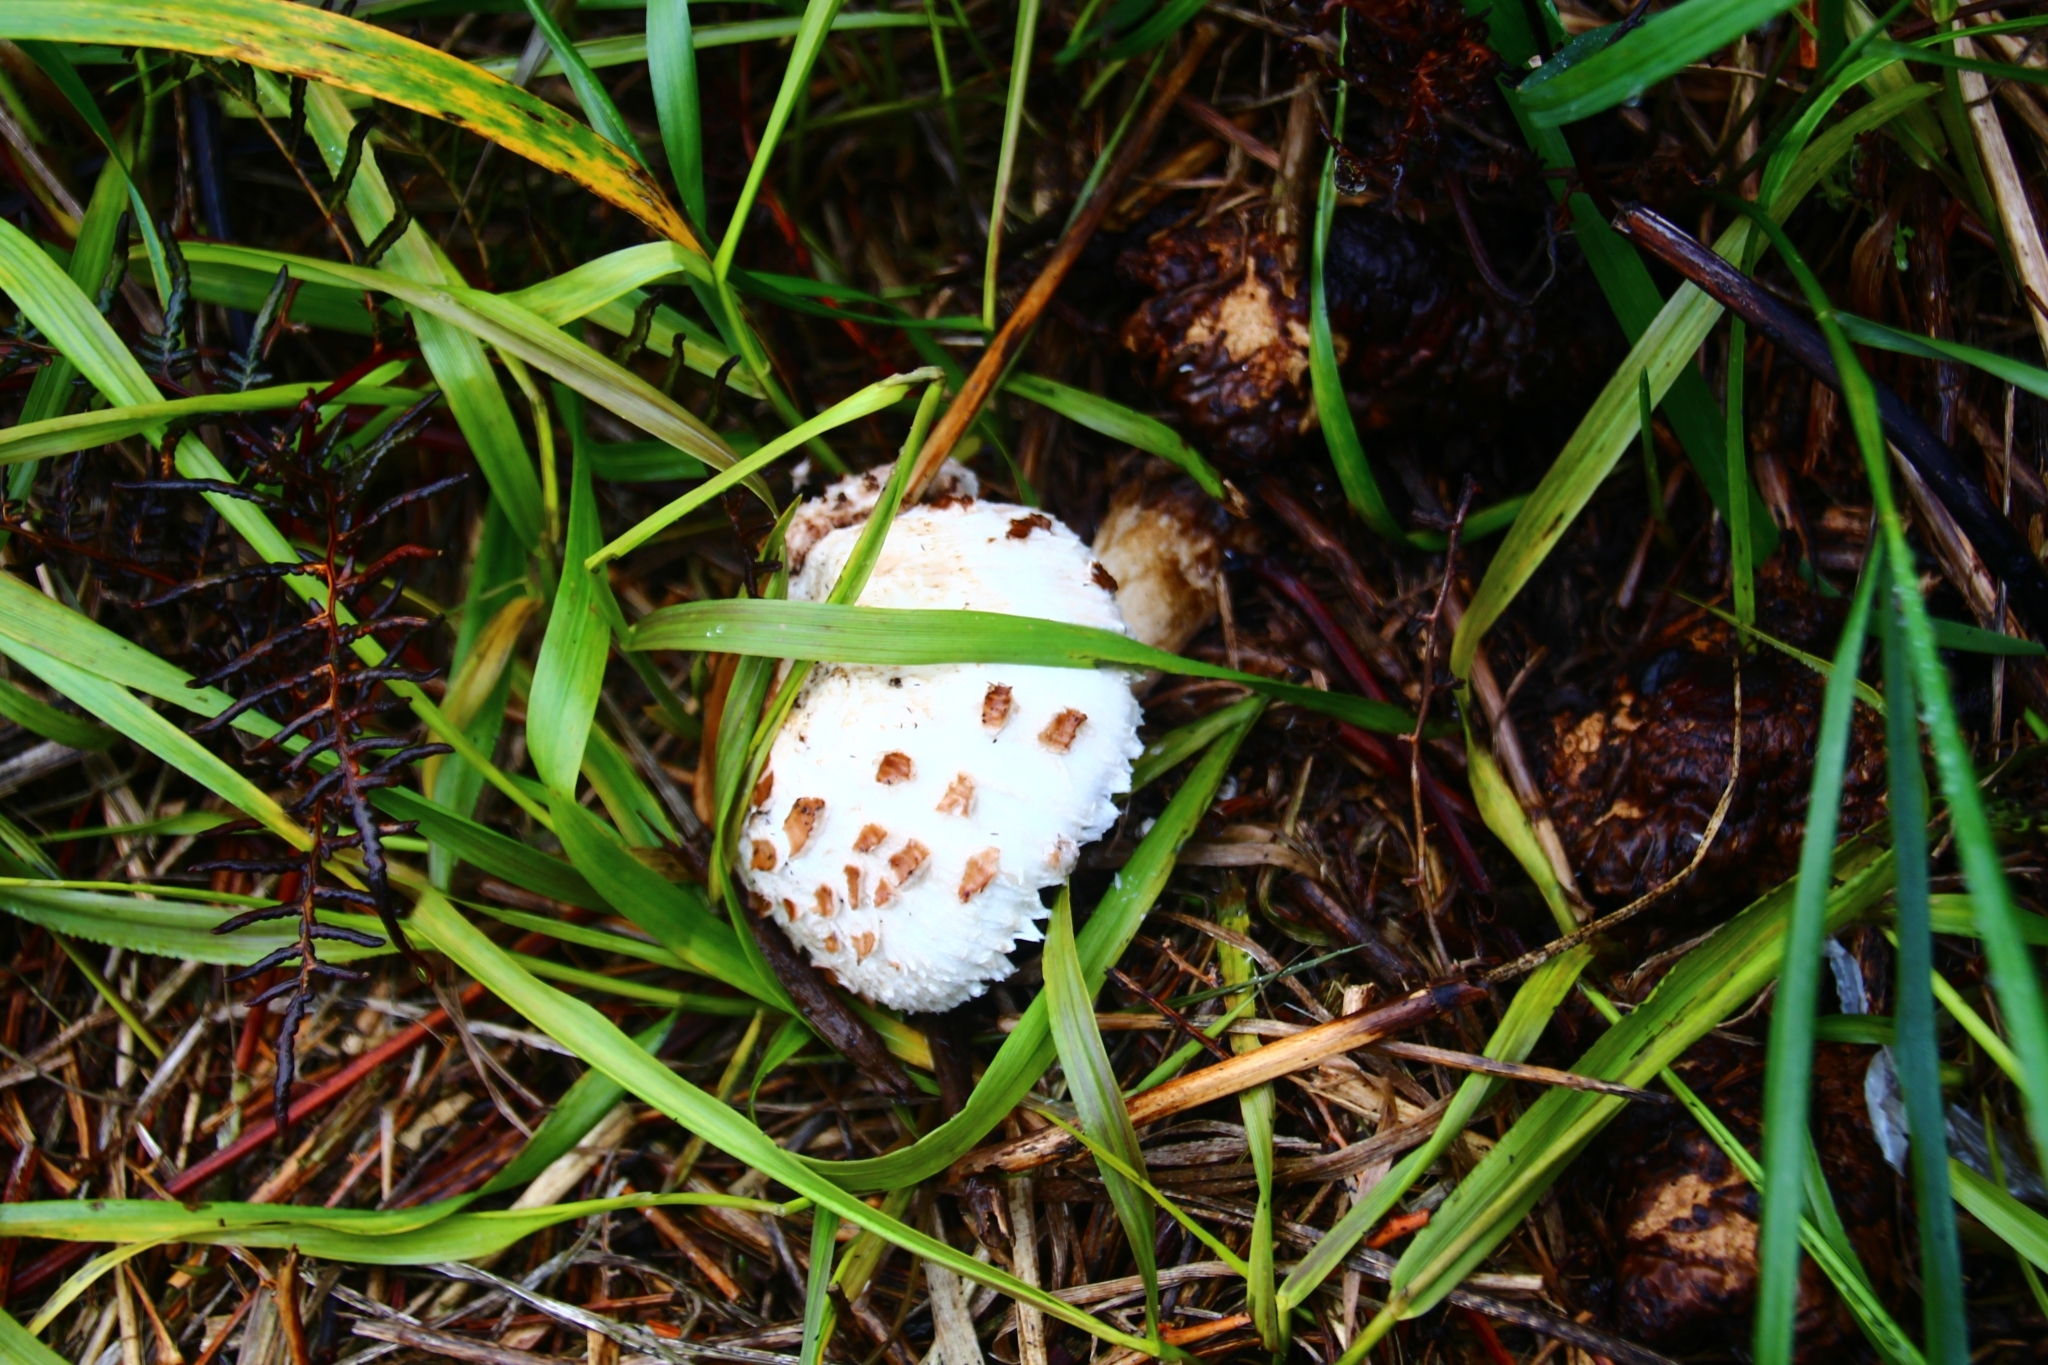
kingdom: Fungi
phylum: Basidiomycota
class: Agaricomycetes
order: Agaricales
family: Agaricaceae
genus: Chlorophyllum
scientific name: Chlorophyllum rhacodes
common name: Shaggy parasol
